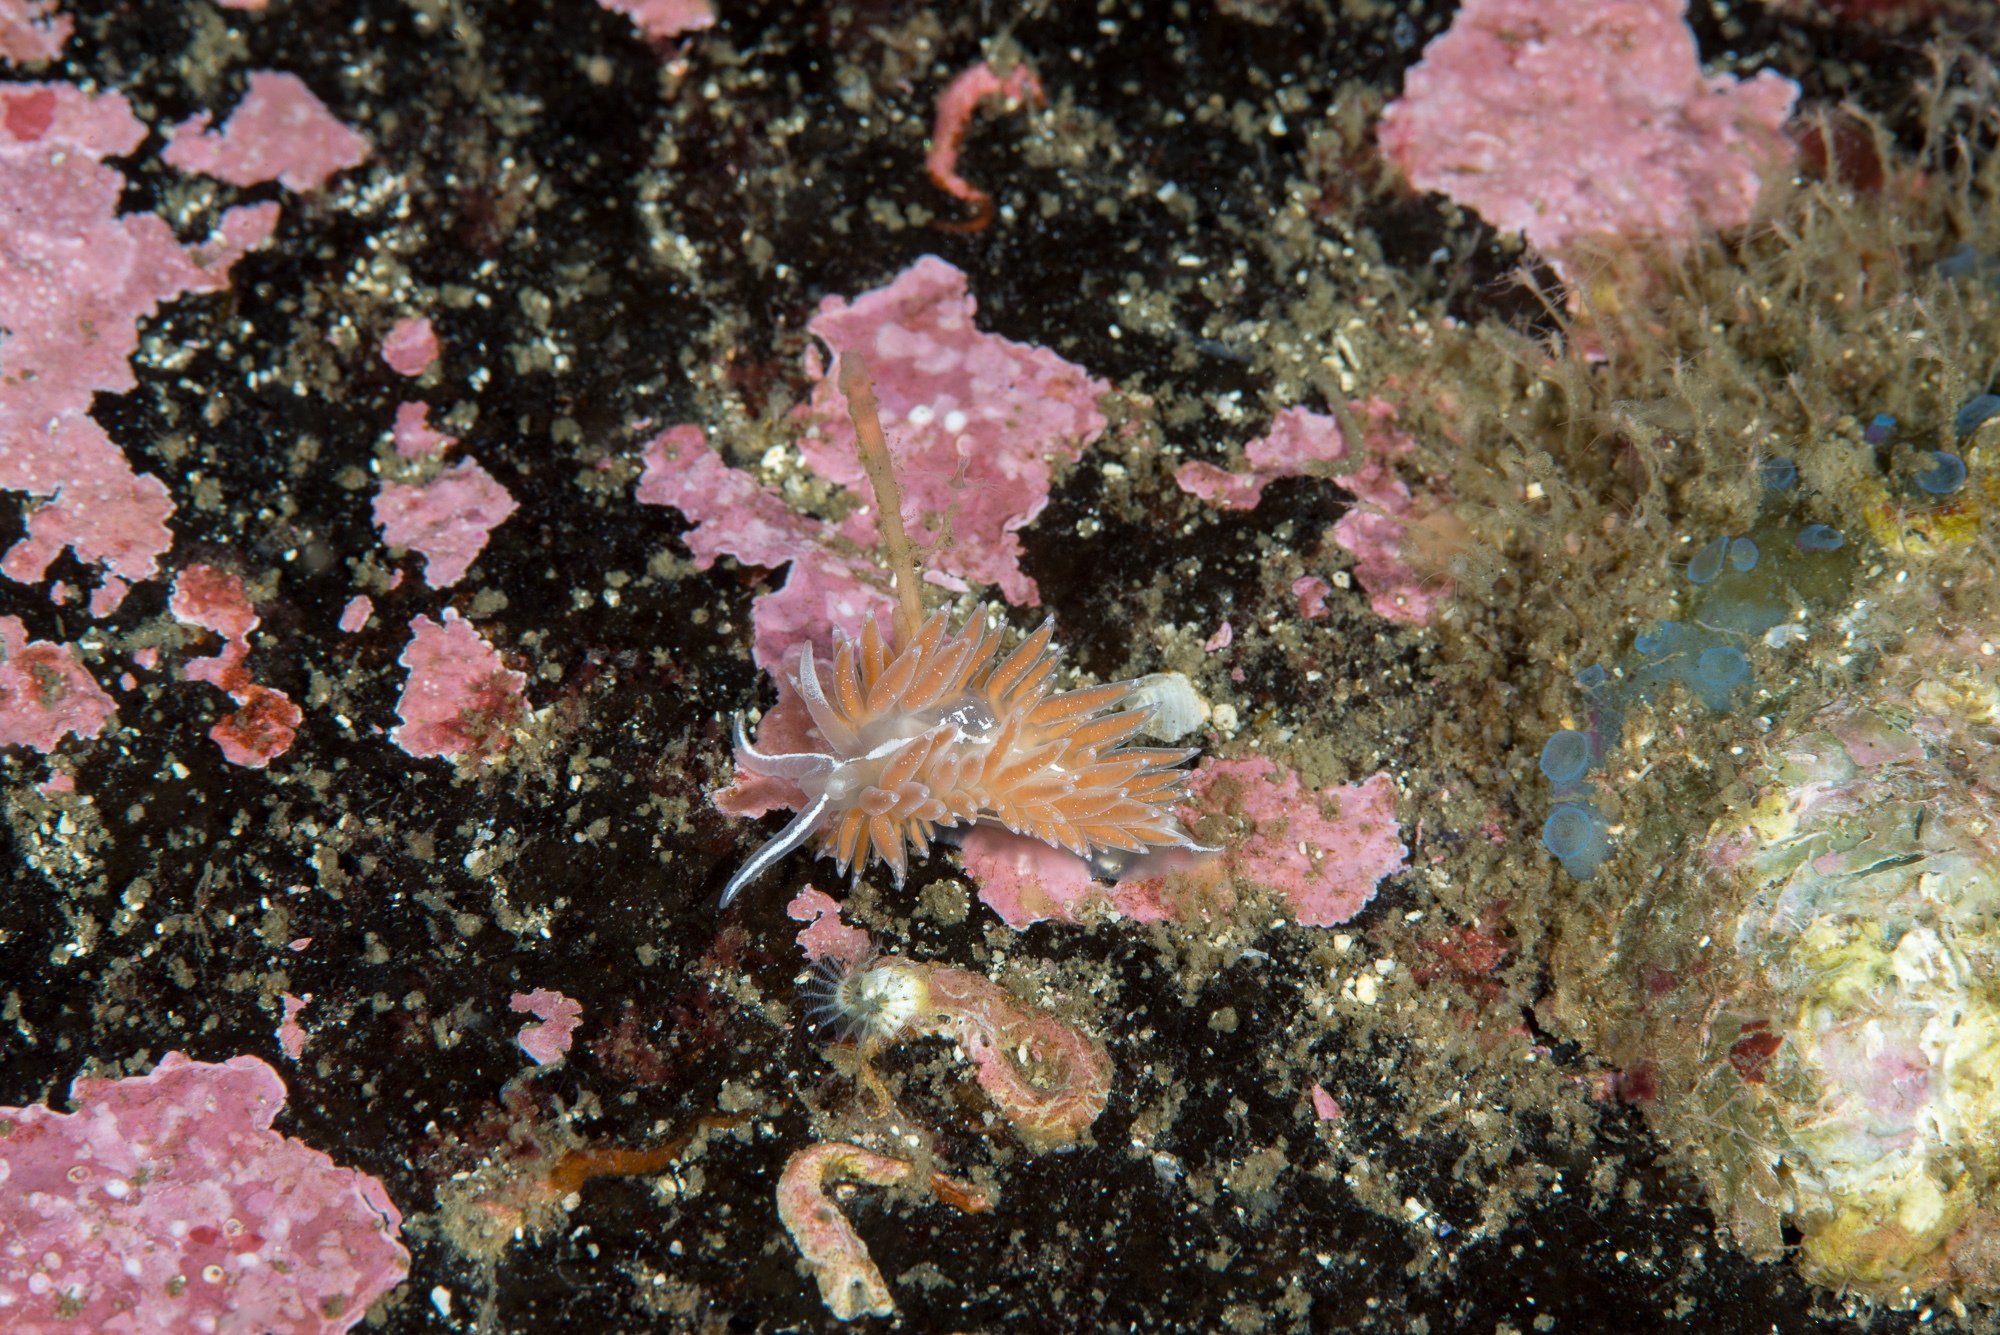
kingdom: Animalia
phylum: Mollusca
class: Gastropoda
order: Nudibranchia
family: Coryphellidae
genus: Coryphella
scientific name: Coryphella orjani
